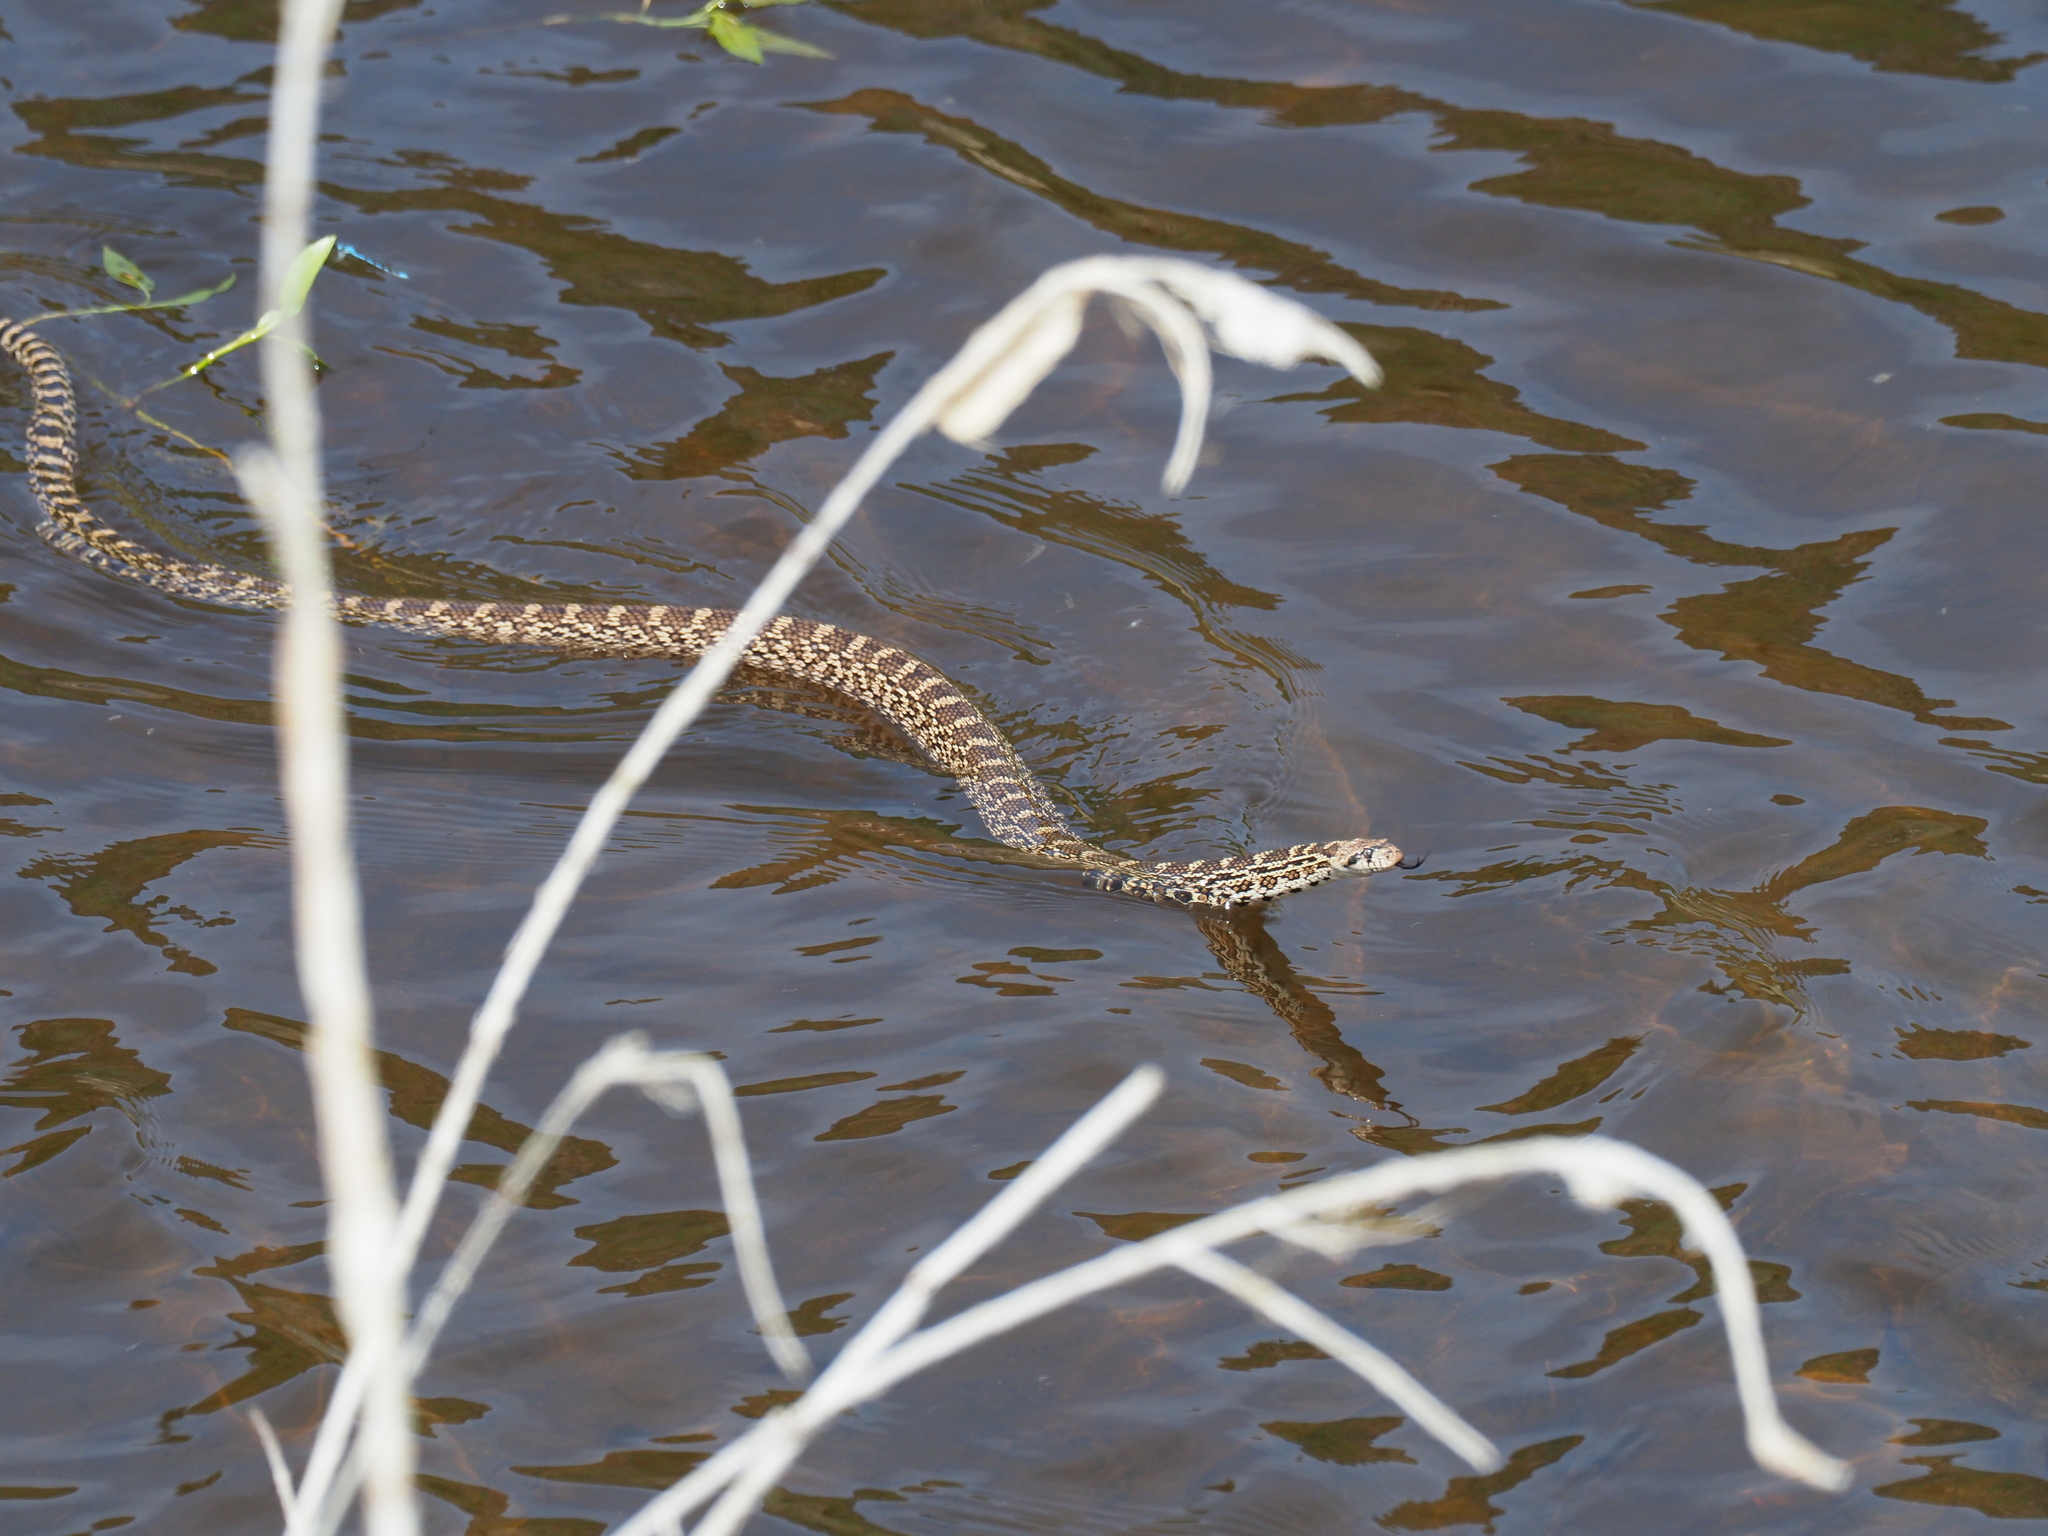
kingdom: Animalia
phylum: Chordata
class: Squamata
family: Colubridae
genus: Pituophis
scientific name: Pituophis catenifer
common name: Gopher snake
